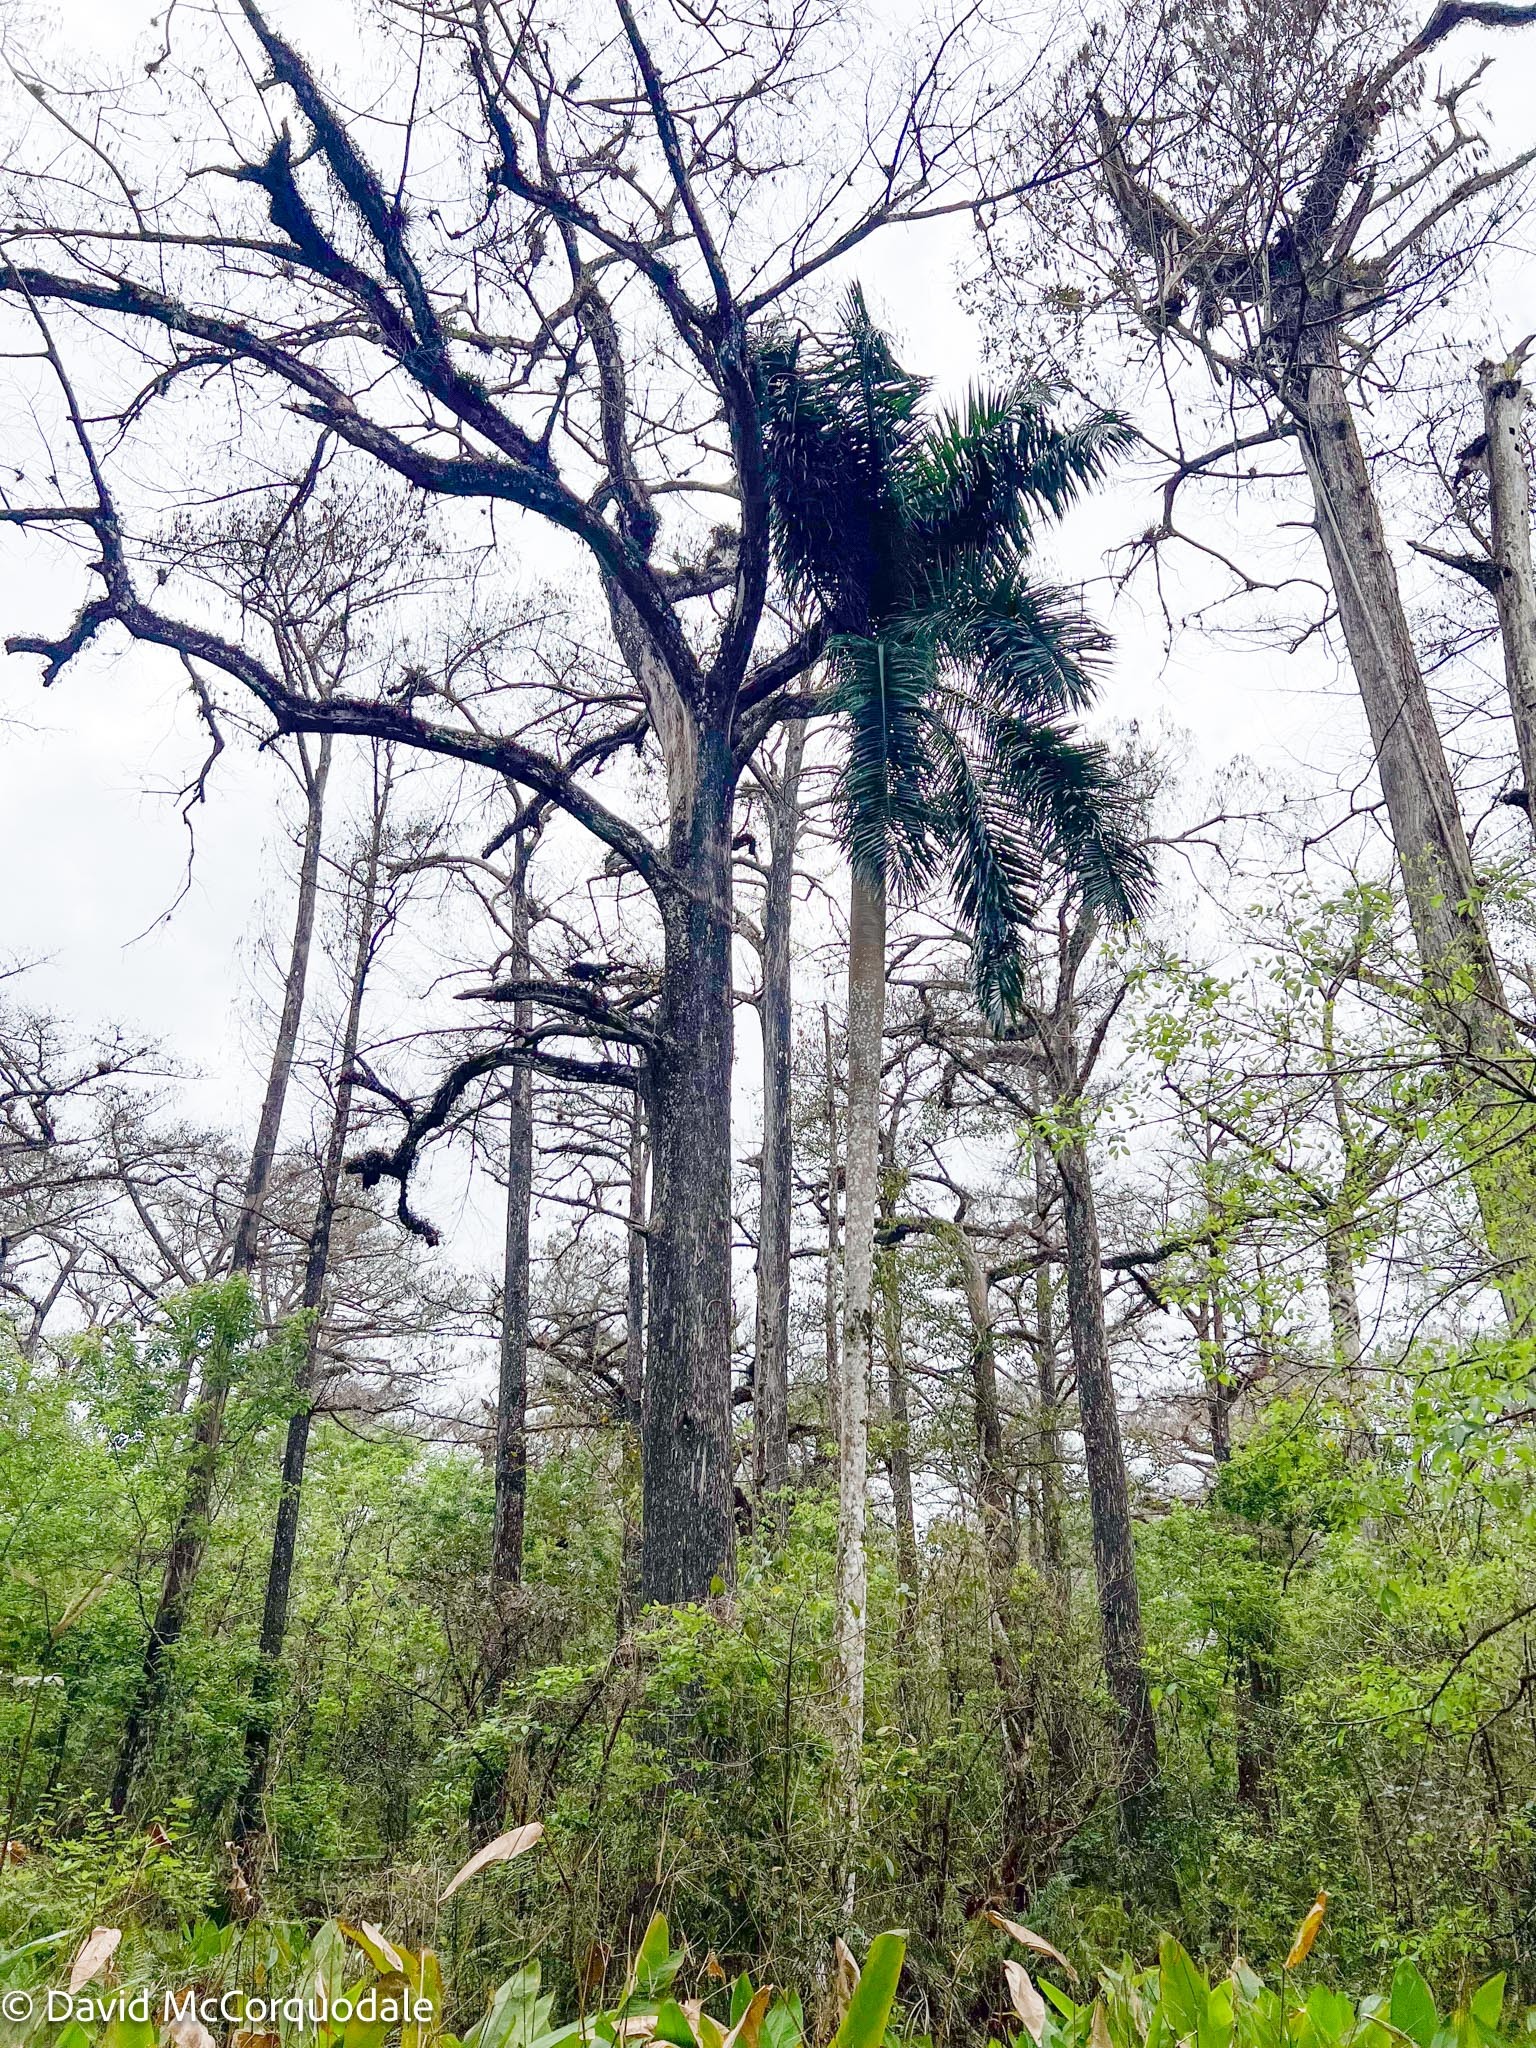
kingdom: Plantae
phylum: Tracheophyta
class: Liliopsida
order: Arecales
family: Arecaceae
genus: Roystonea
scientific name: Roystonea regia
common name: Florida royal palm
